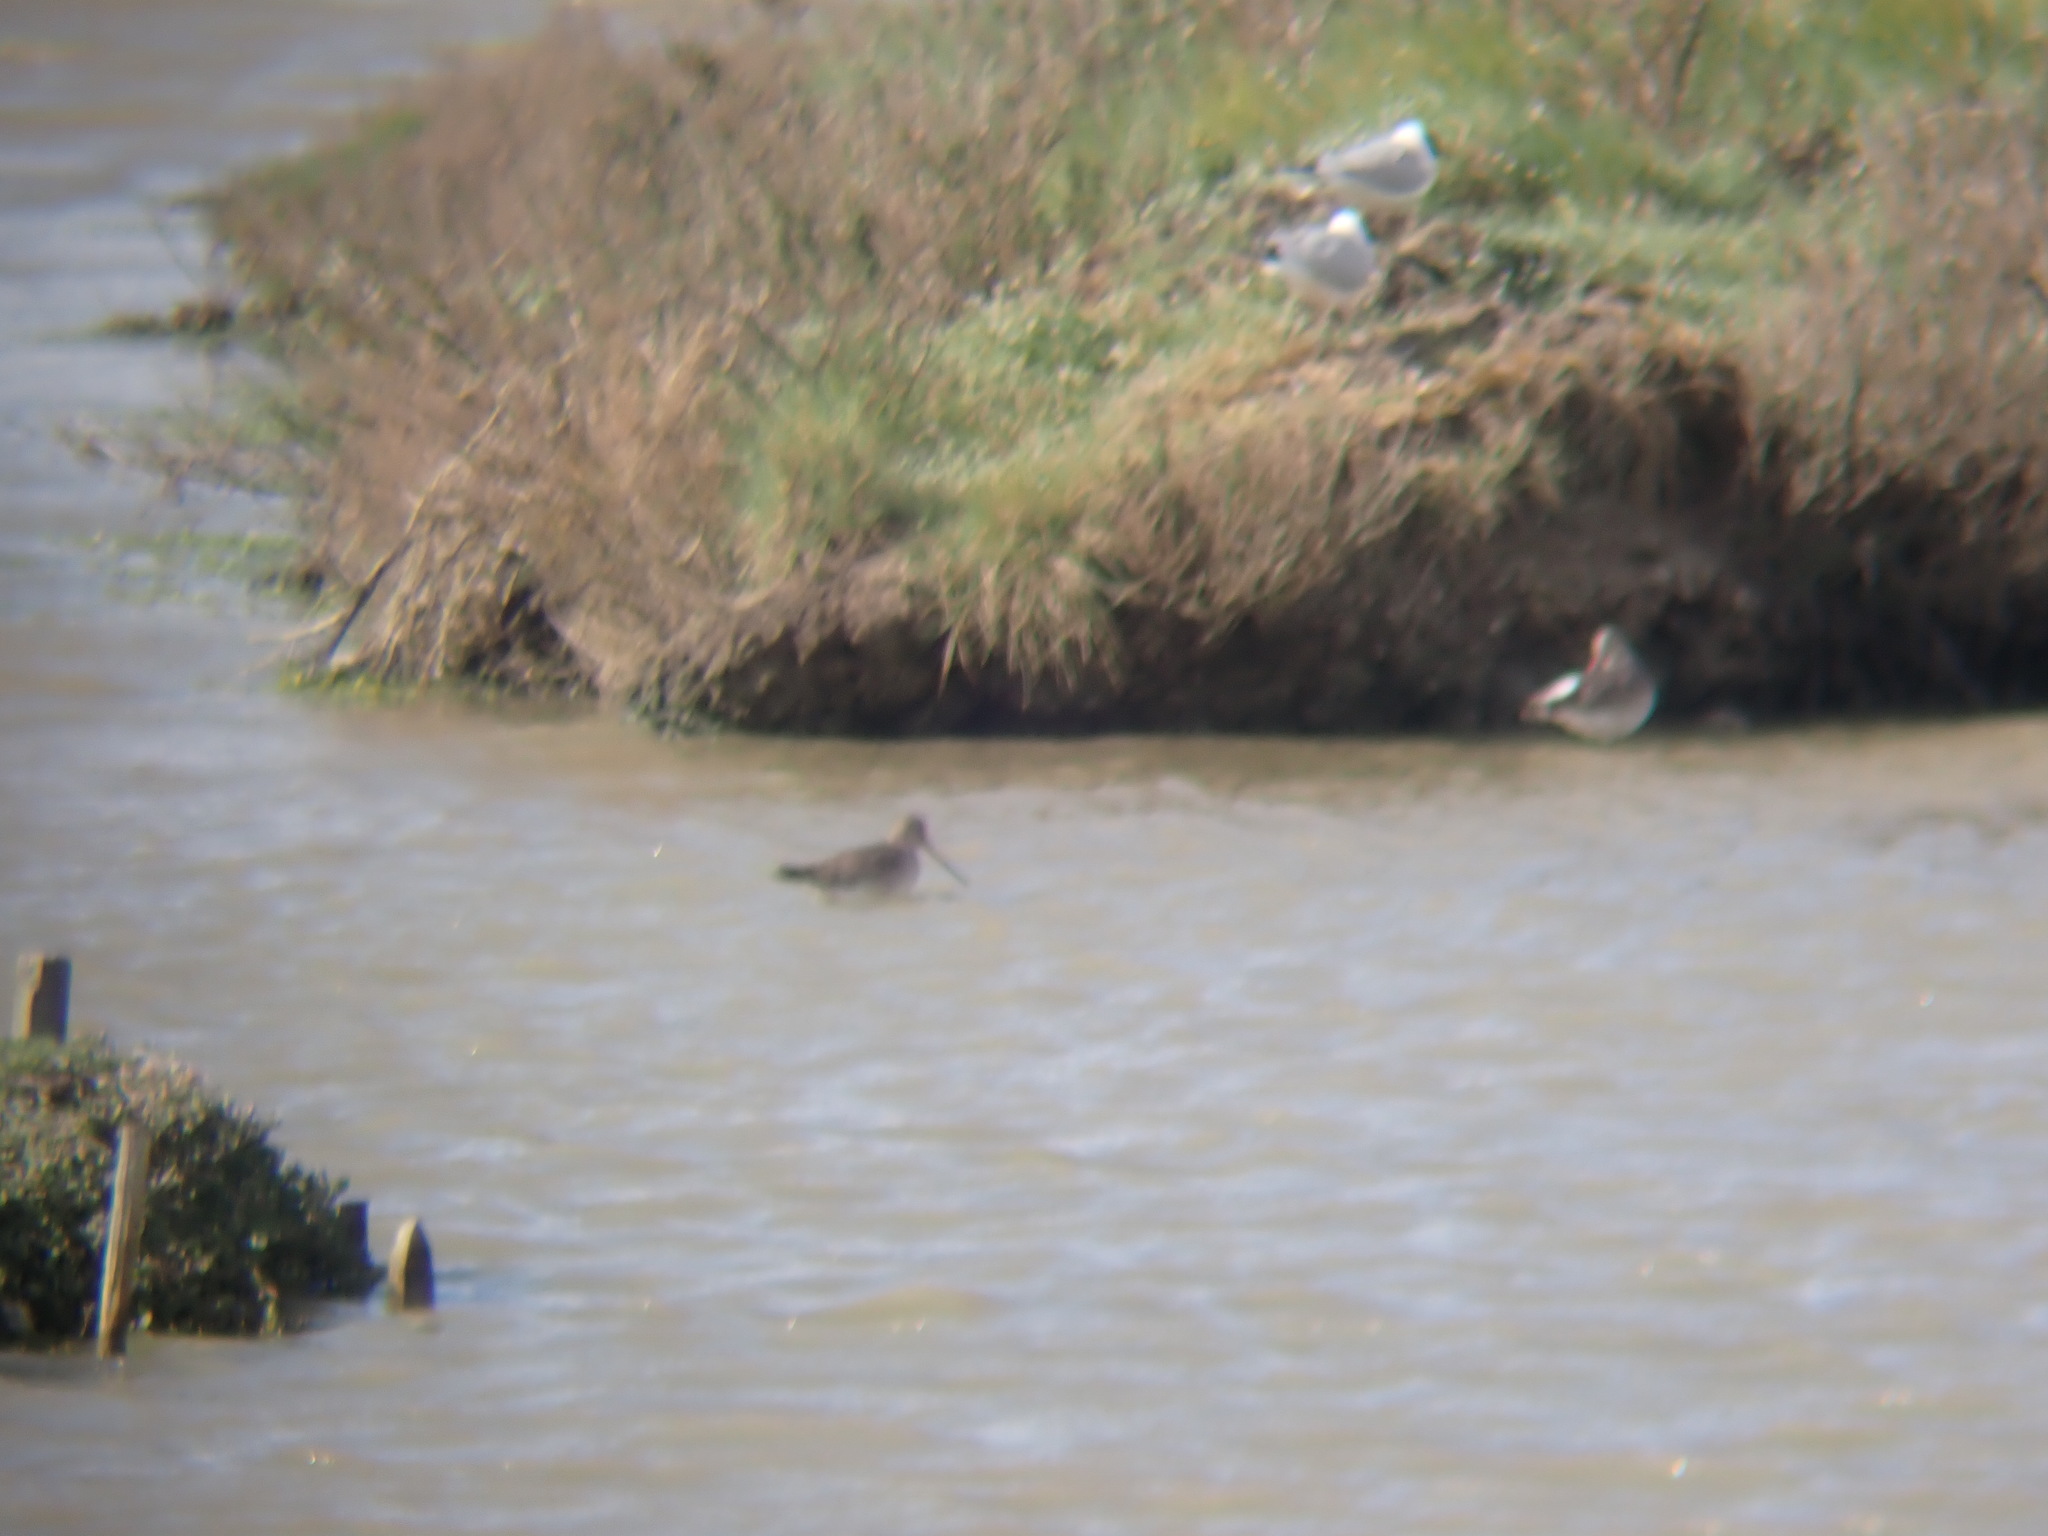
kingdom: Animalia
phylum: Chordata
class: Aves
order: Charadriiformes
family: Scolopacidae
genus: Limosa
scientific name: Limosa limosa
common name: Black-tailed godwit
